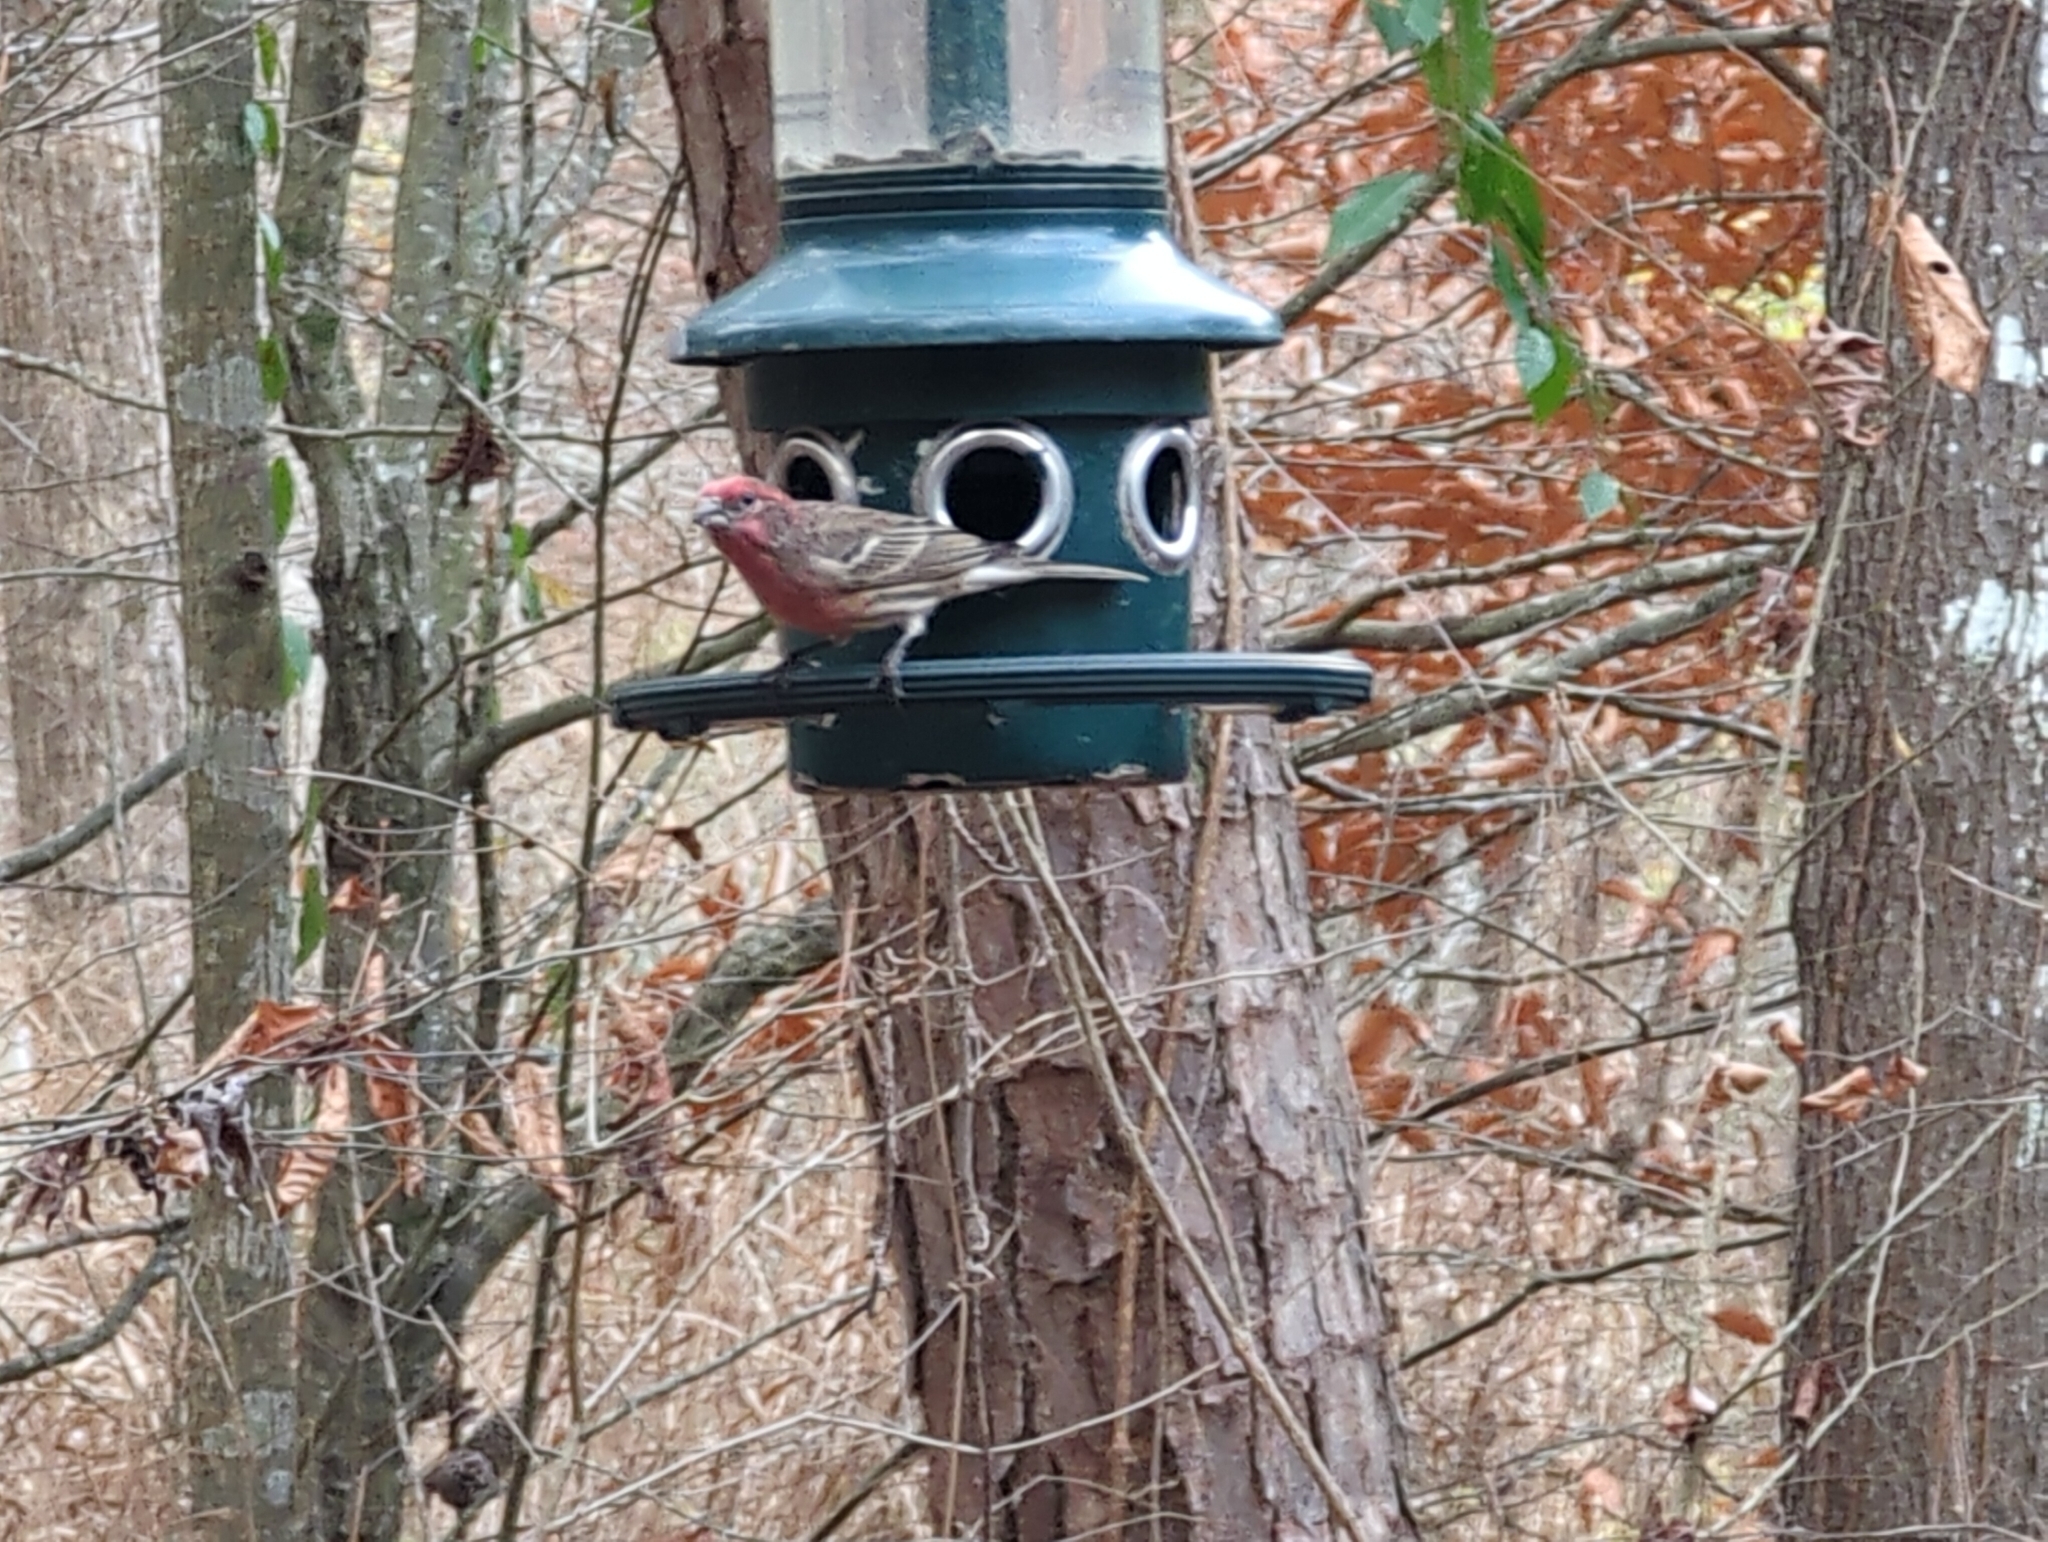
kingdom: Animalia
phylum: Chordata
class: Aves
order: Passeriformes
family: Fringillidae
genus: Haemorhous
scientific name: Haemorhous mexicanus
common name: House finch
